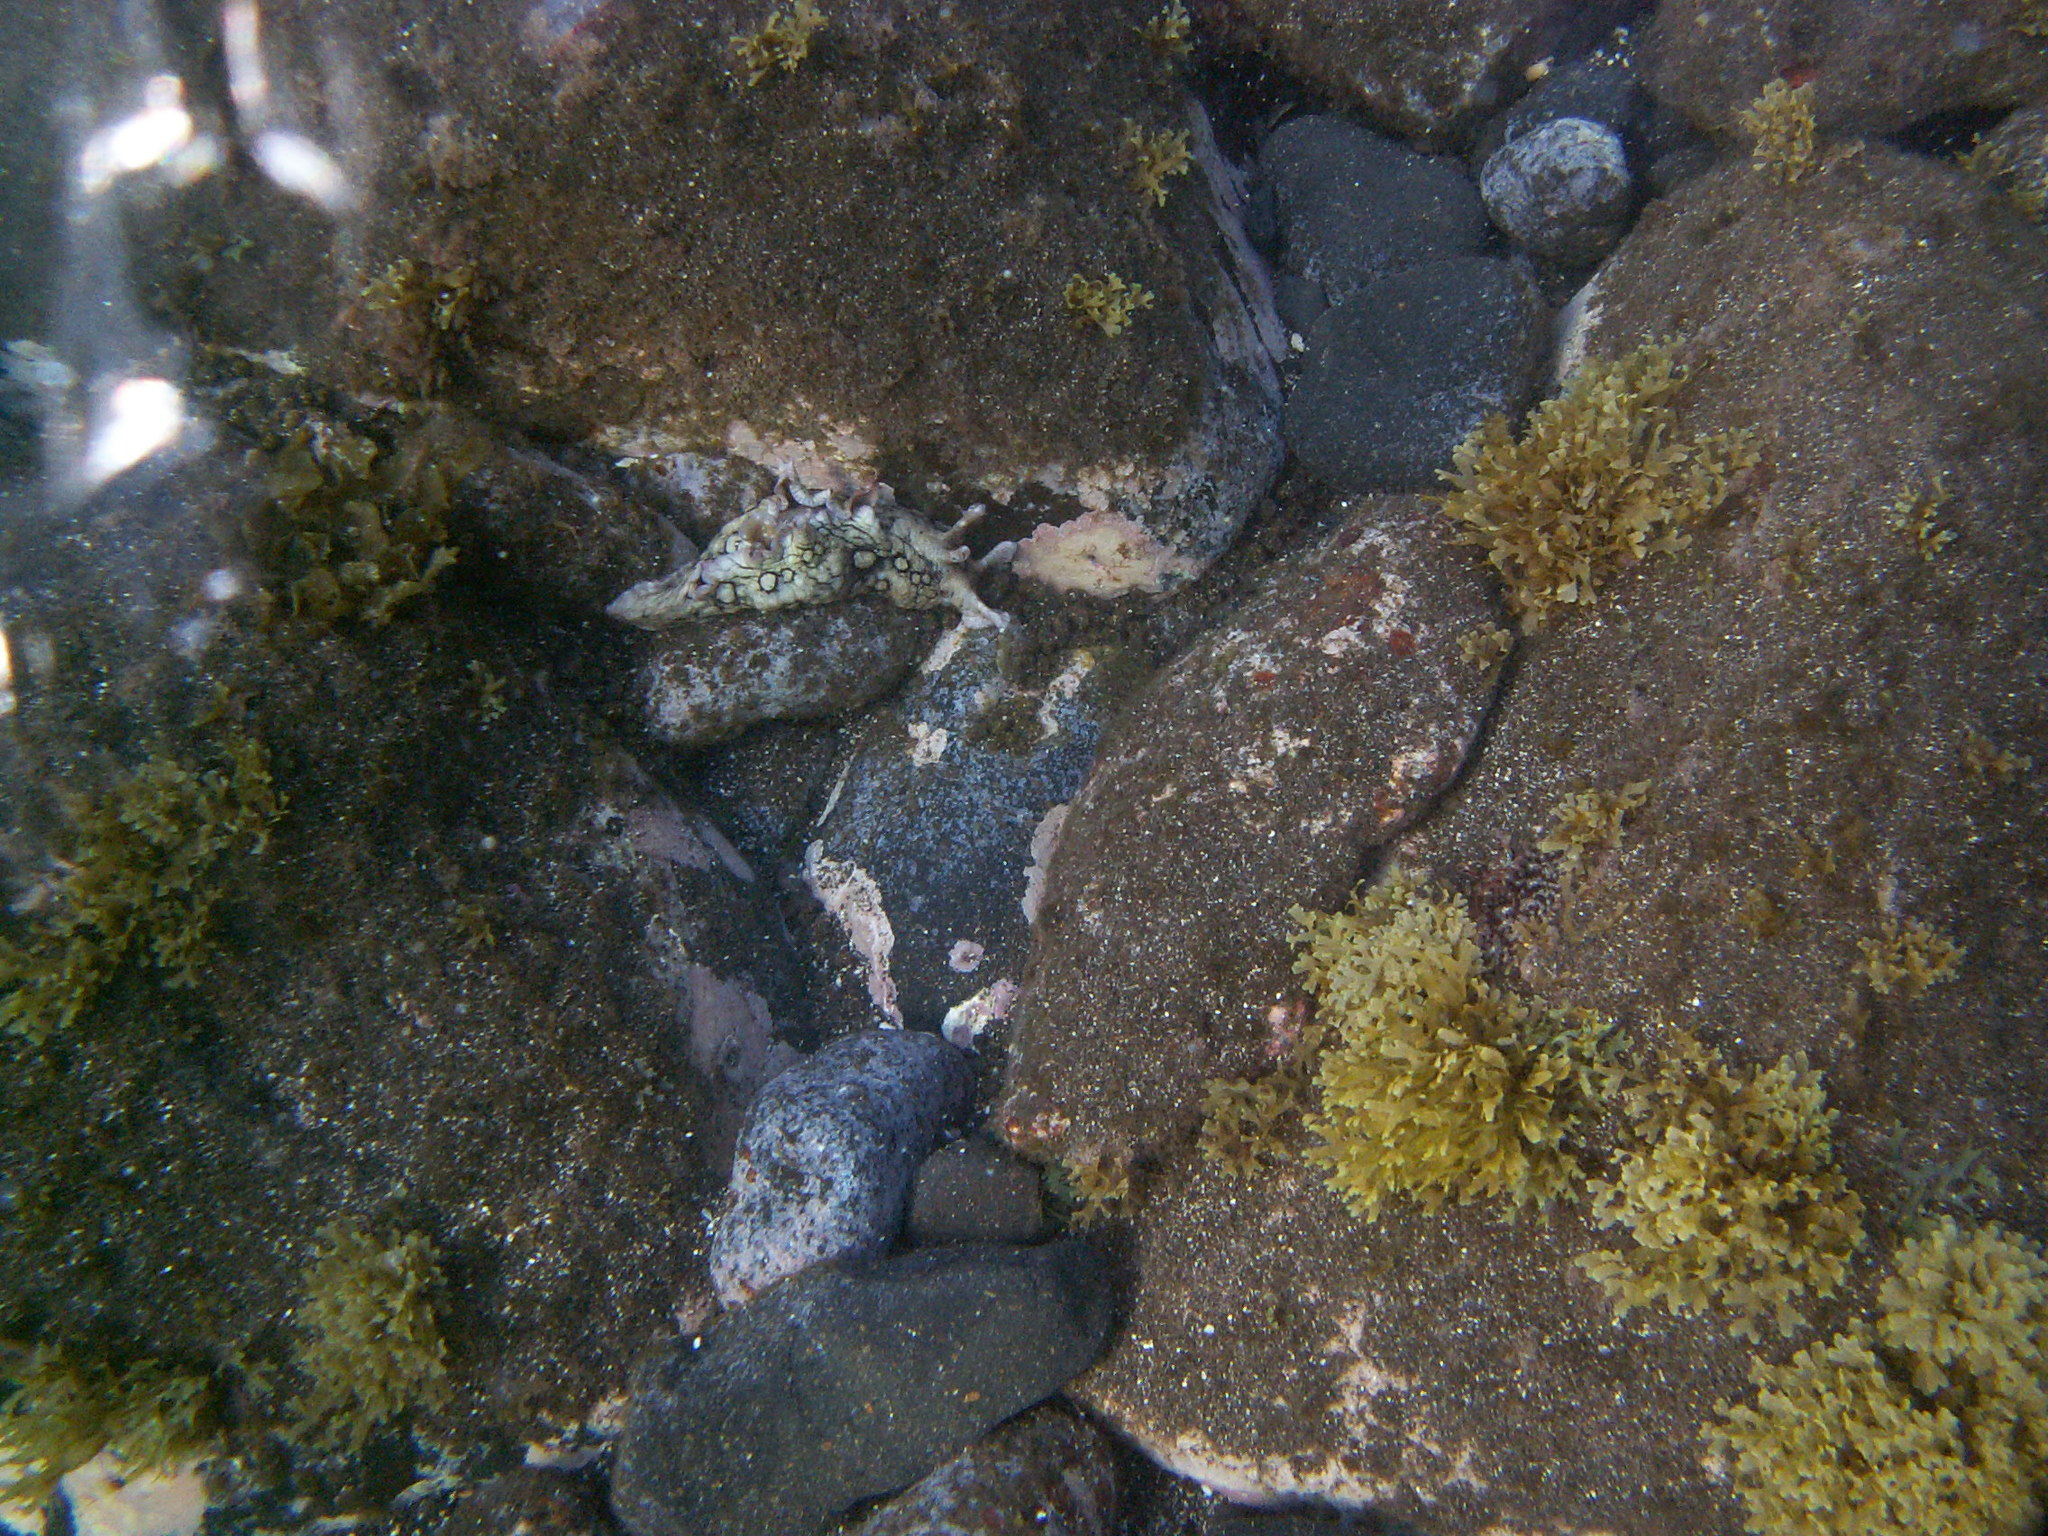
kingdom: Animalia
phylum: Mollusca
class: Gastropoda
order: Aplysiida
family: Aplysiidae
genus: Aplysia
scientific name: Aplysia dactylomela
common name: Large-spotted sea hare
